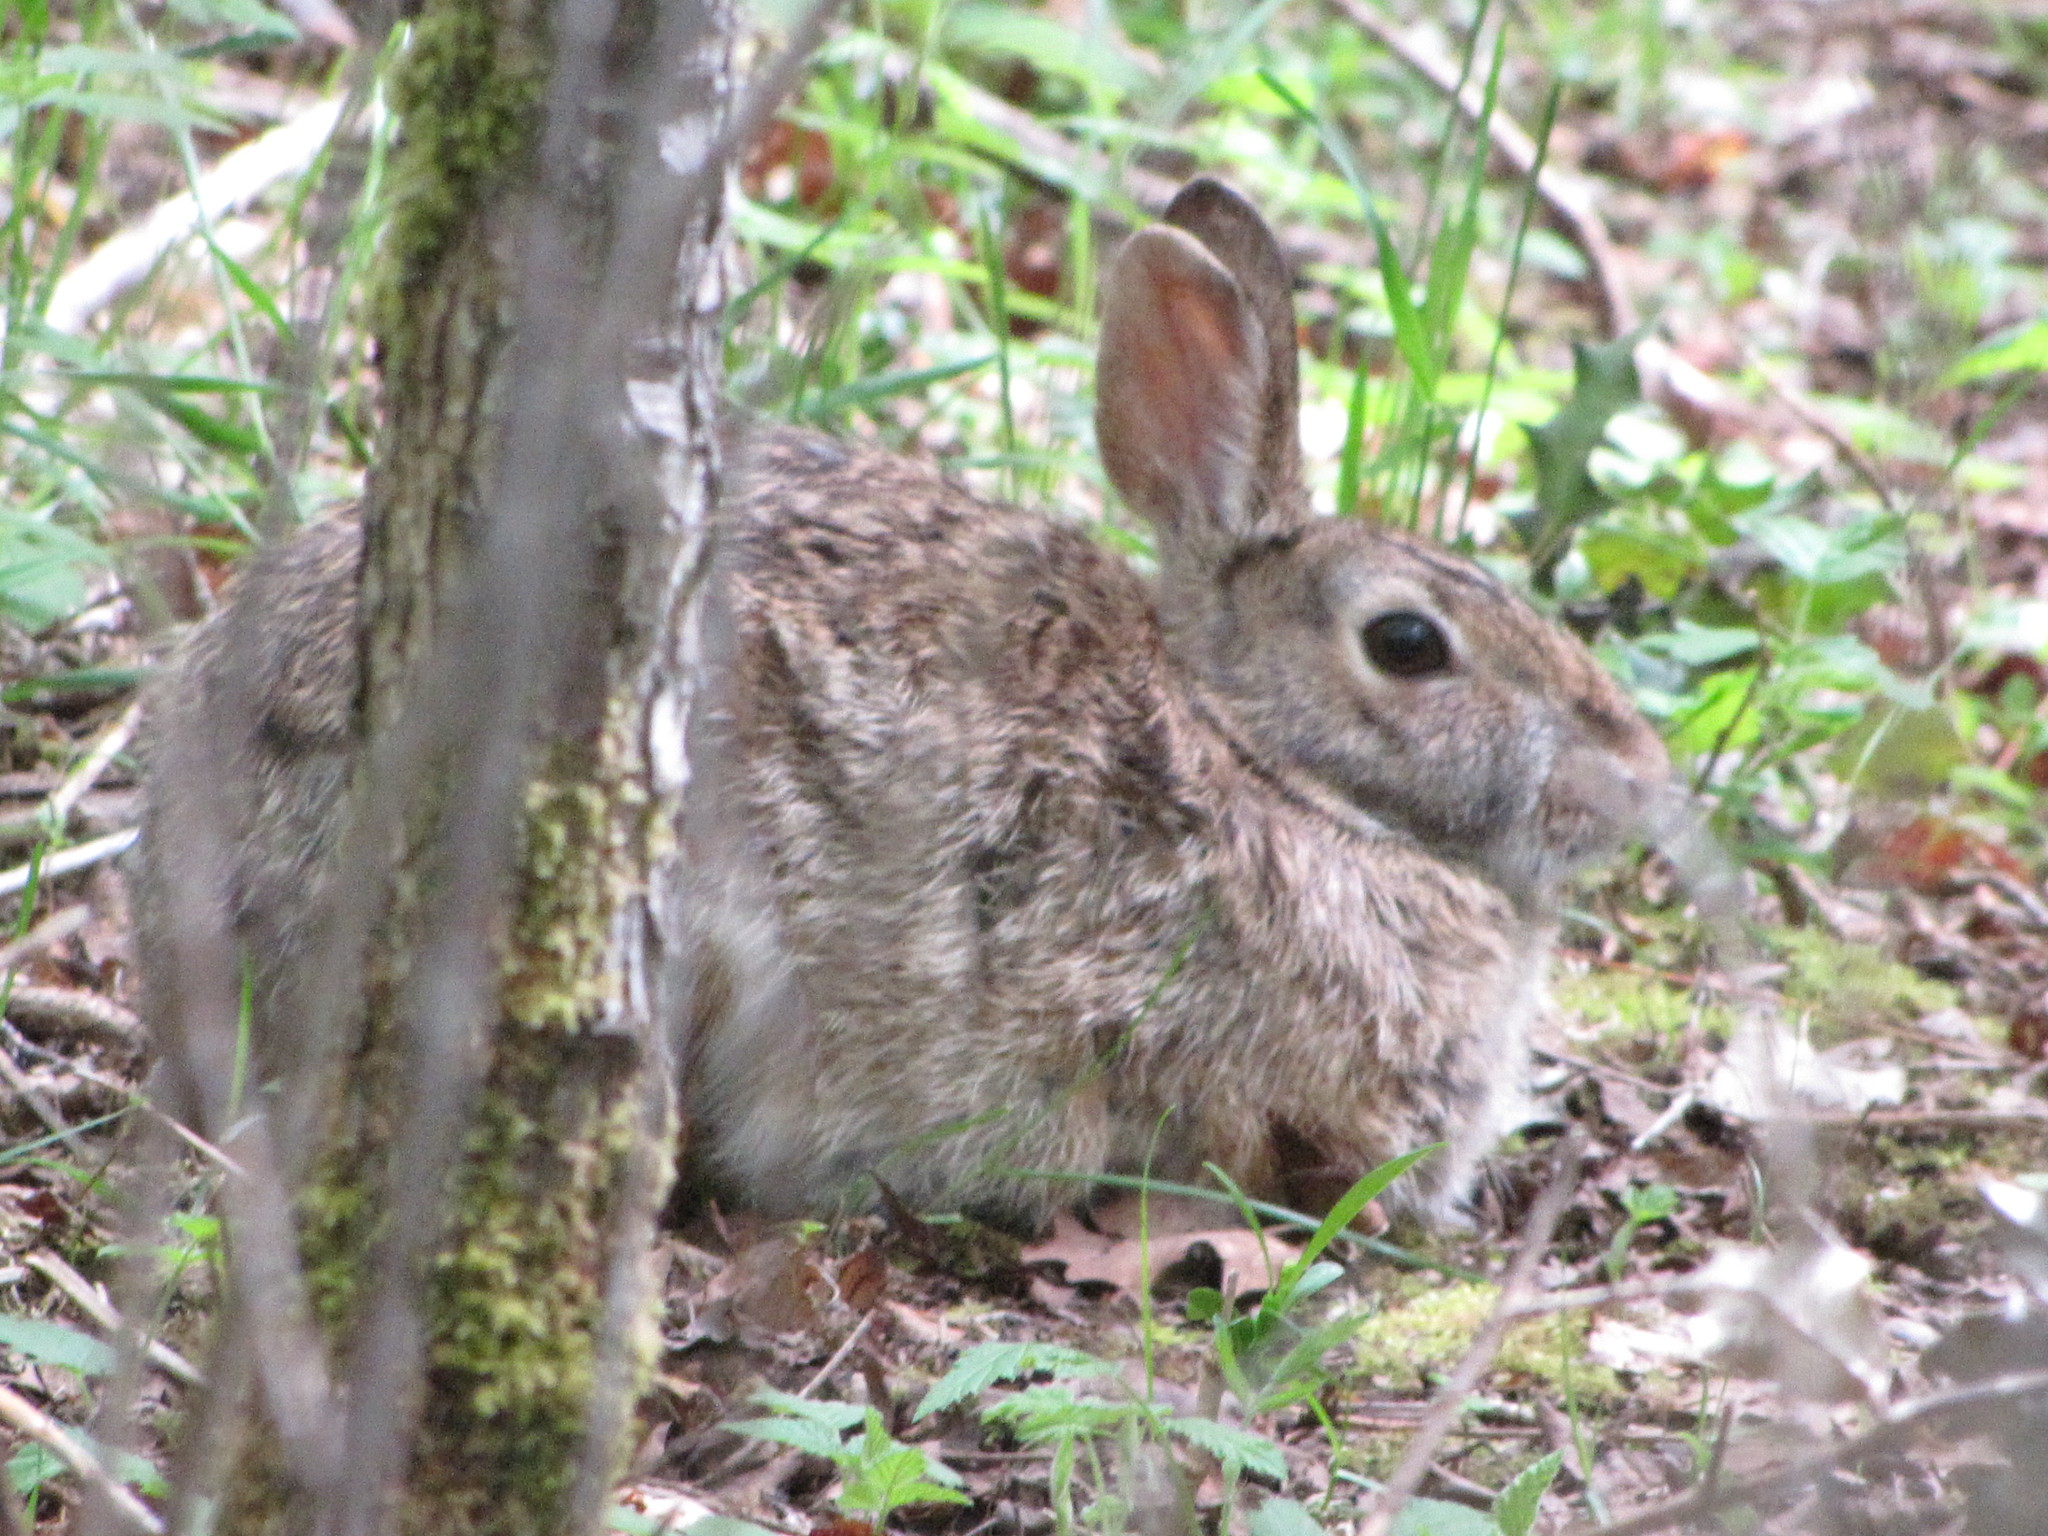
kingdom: Animalia
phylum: Chordata
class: Mammalia
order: Lagomorpha
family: Leporidae
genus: Sylvilagus
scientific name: Sylvilagus floridanus
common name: Eastern cottontail
